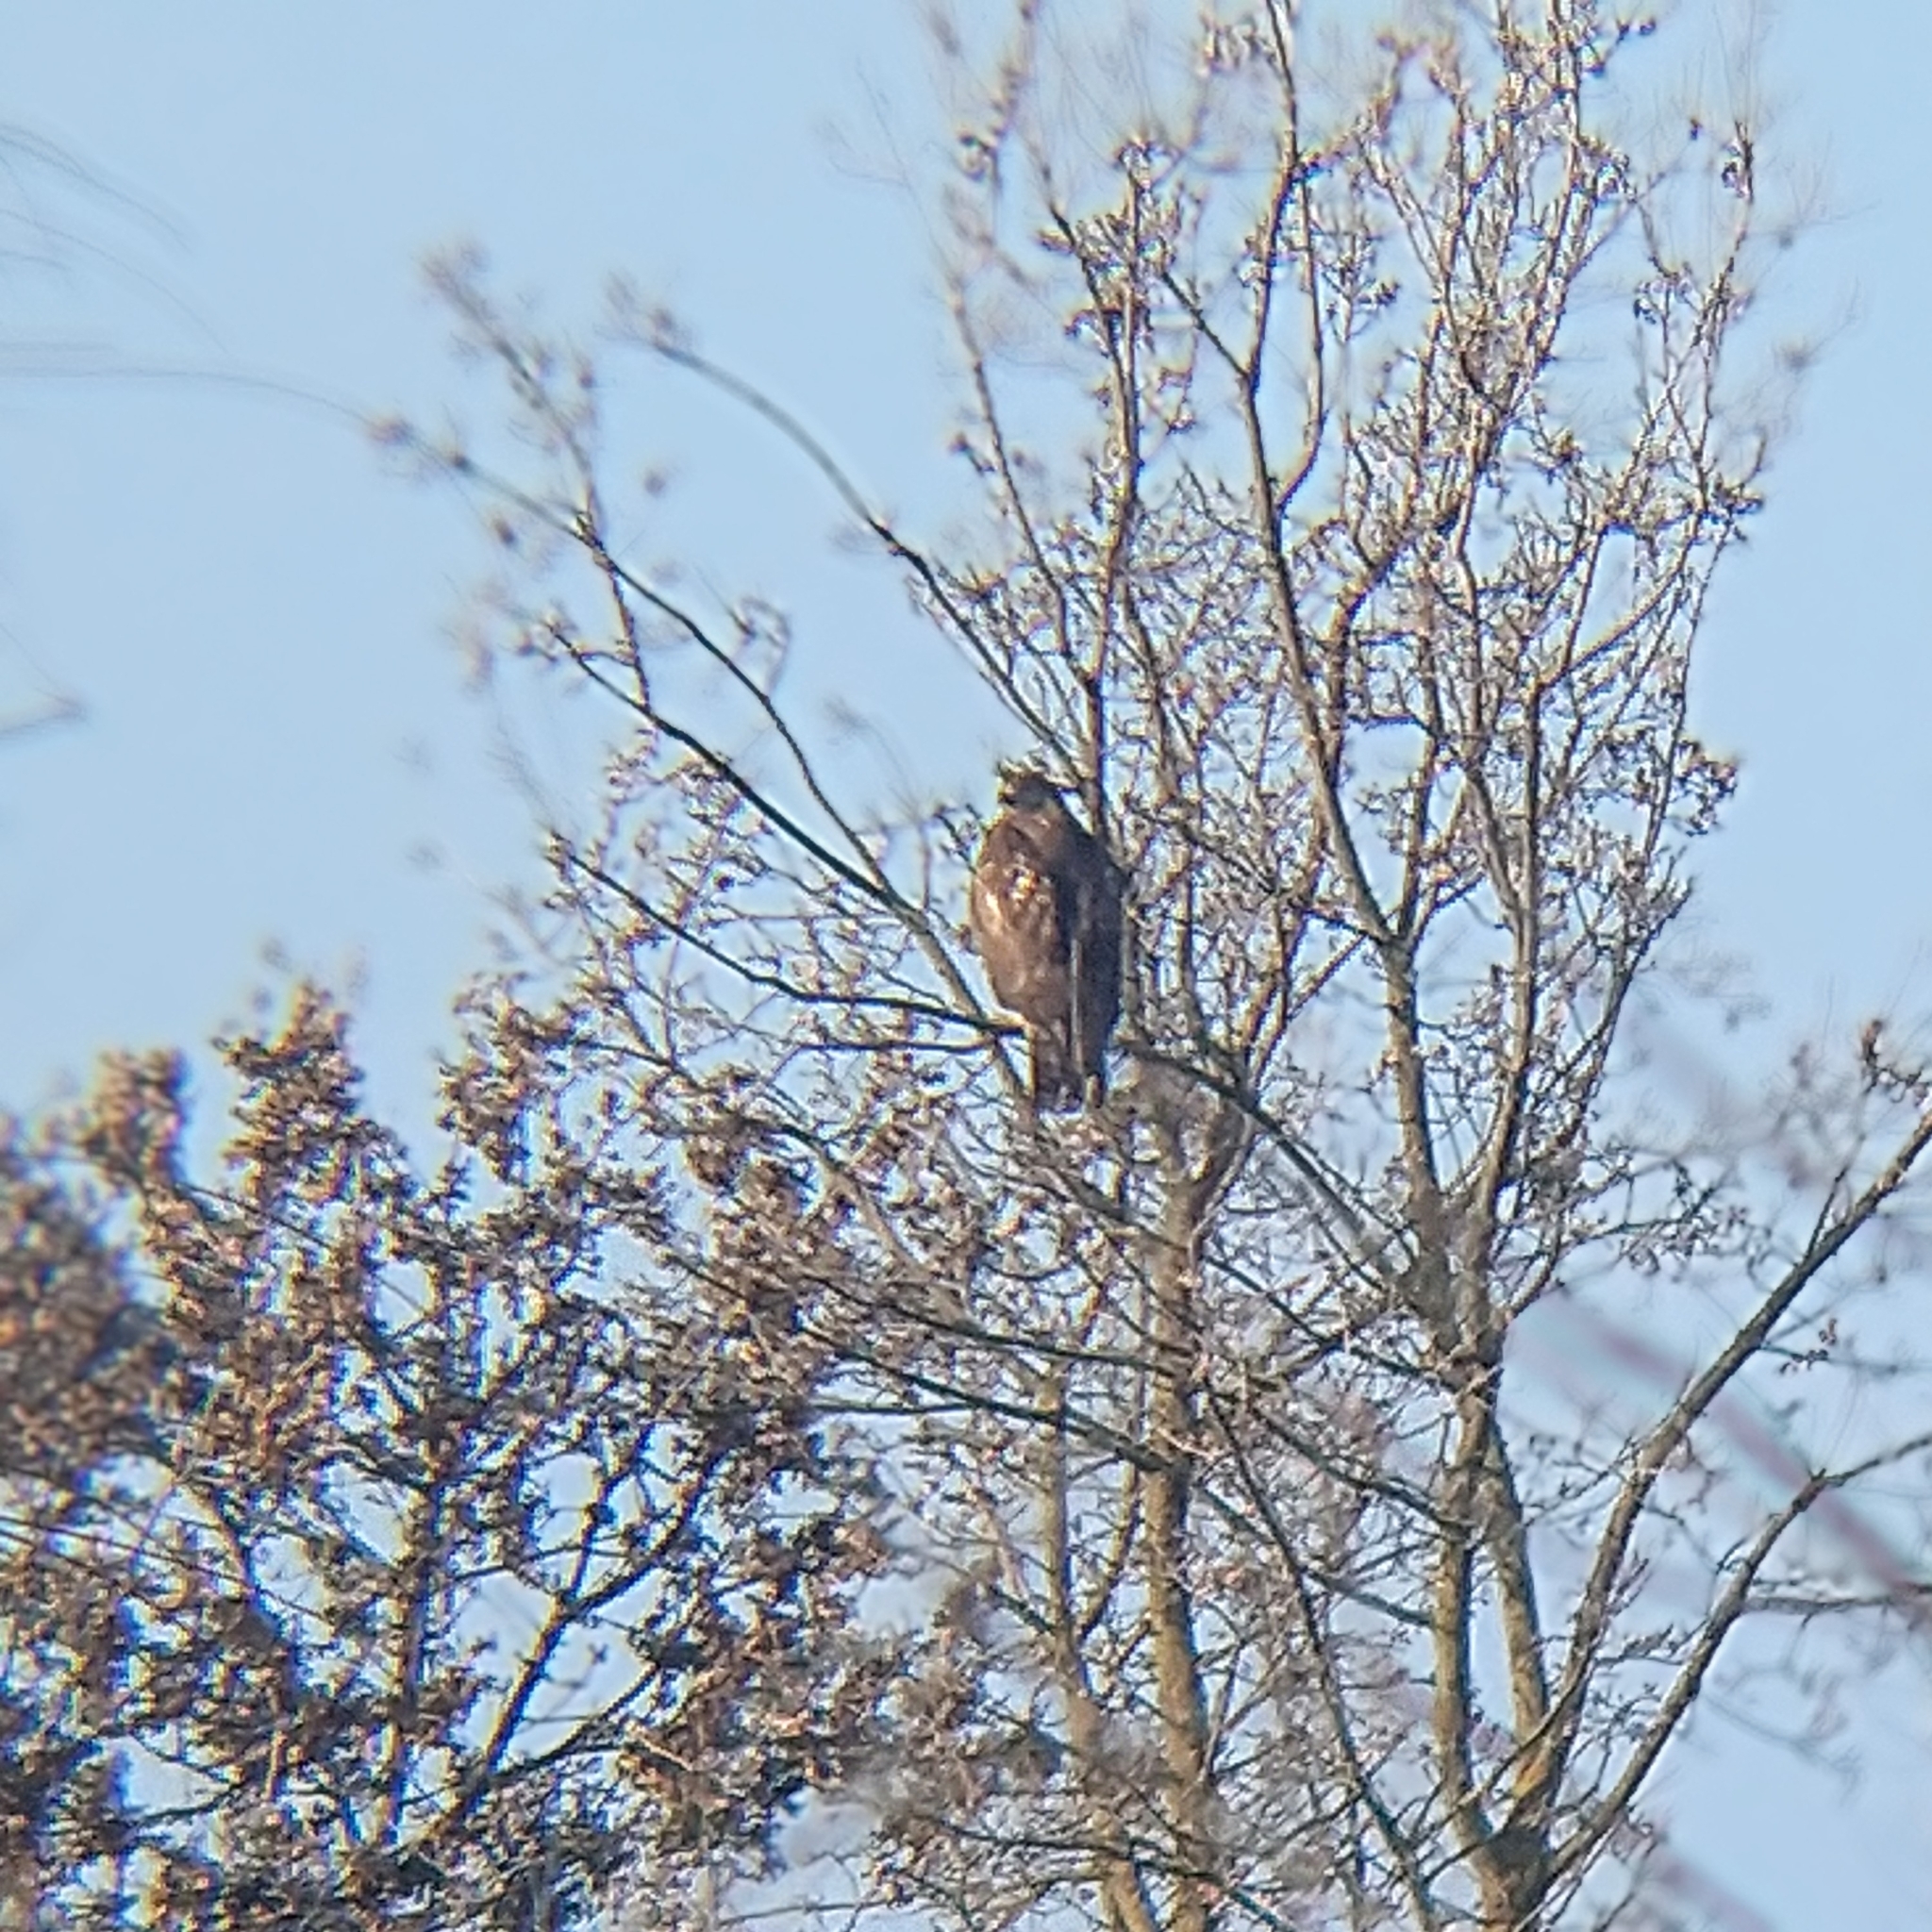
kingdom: Animalia
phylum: Chordata
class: Aves
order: Accipitriformes
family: Accipitridae
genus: Buteo
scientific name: Buteo jamaicensis
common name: Red-tailed hawk
